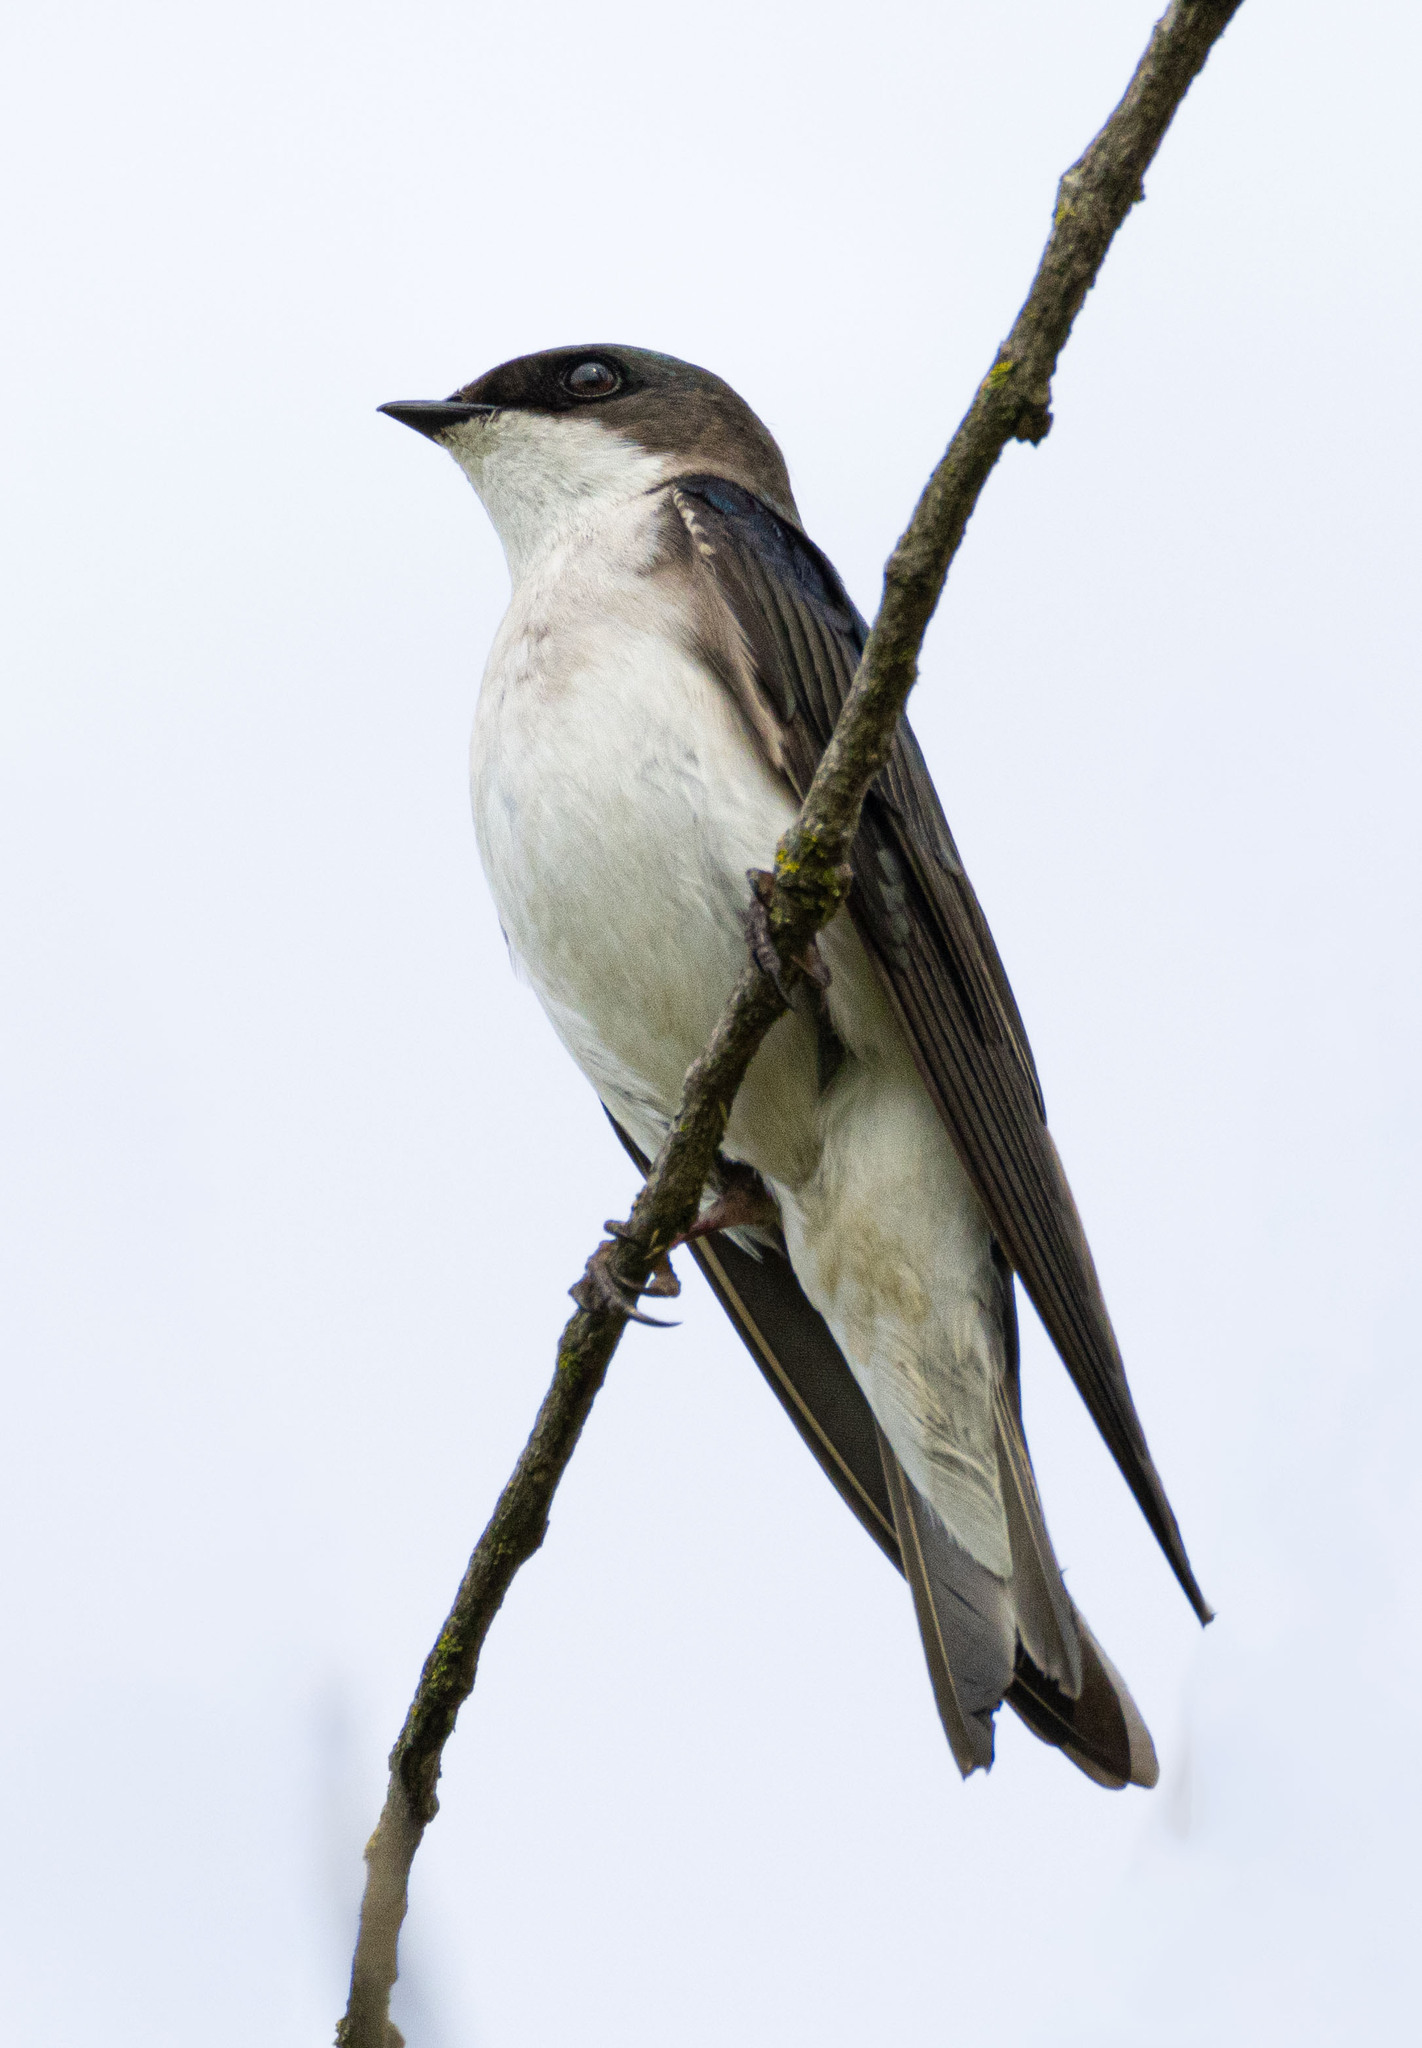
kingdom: Animalia
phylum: Chordata
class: Aves
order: Passeriformes
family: Hirundinidae
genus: Tachycineta
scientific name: Tachycineta bicolor
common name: Tree swallow
